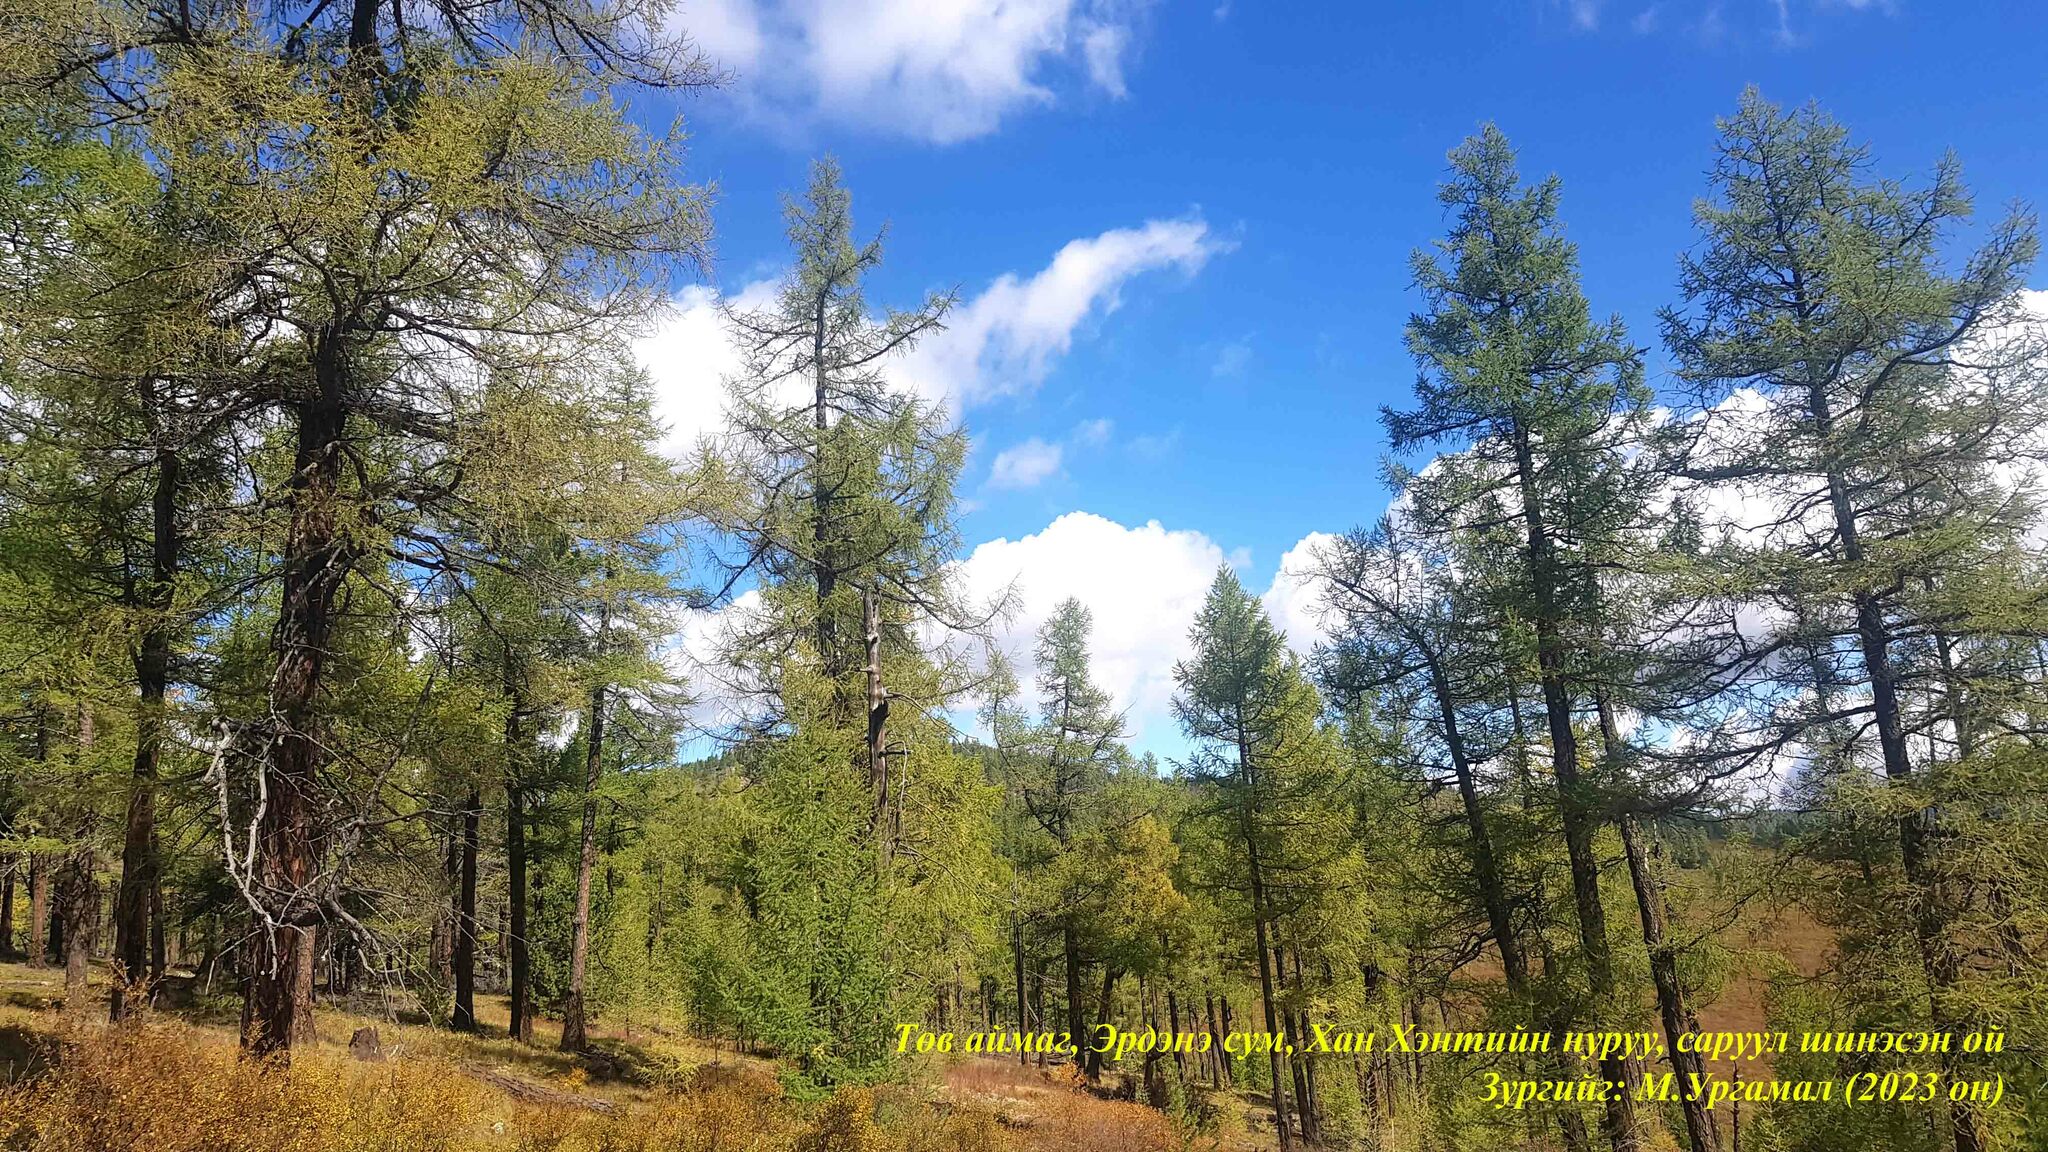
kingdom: Plantae
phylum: Tracheophyta
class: Pinopsida
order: Pinales
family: Pinaceae
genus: Larix
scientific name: Larix sibirica
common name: Siberian larch
